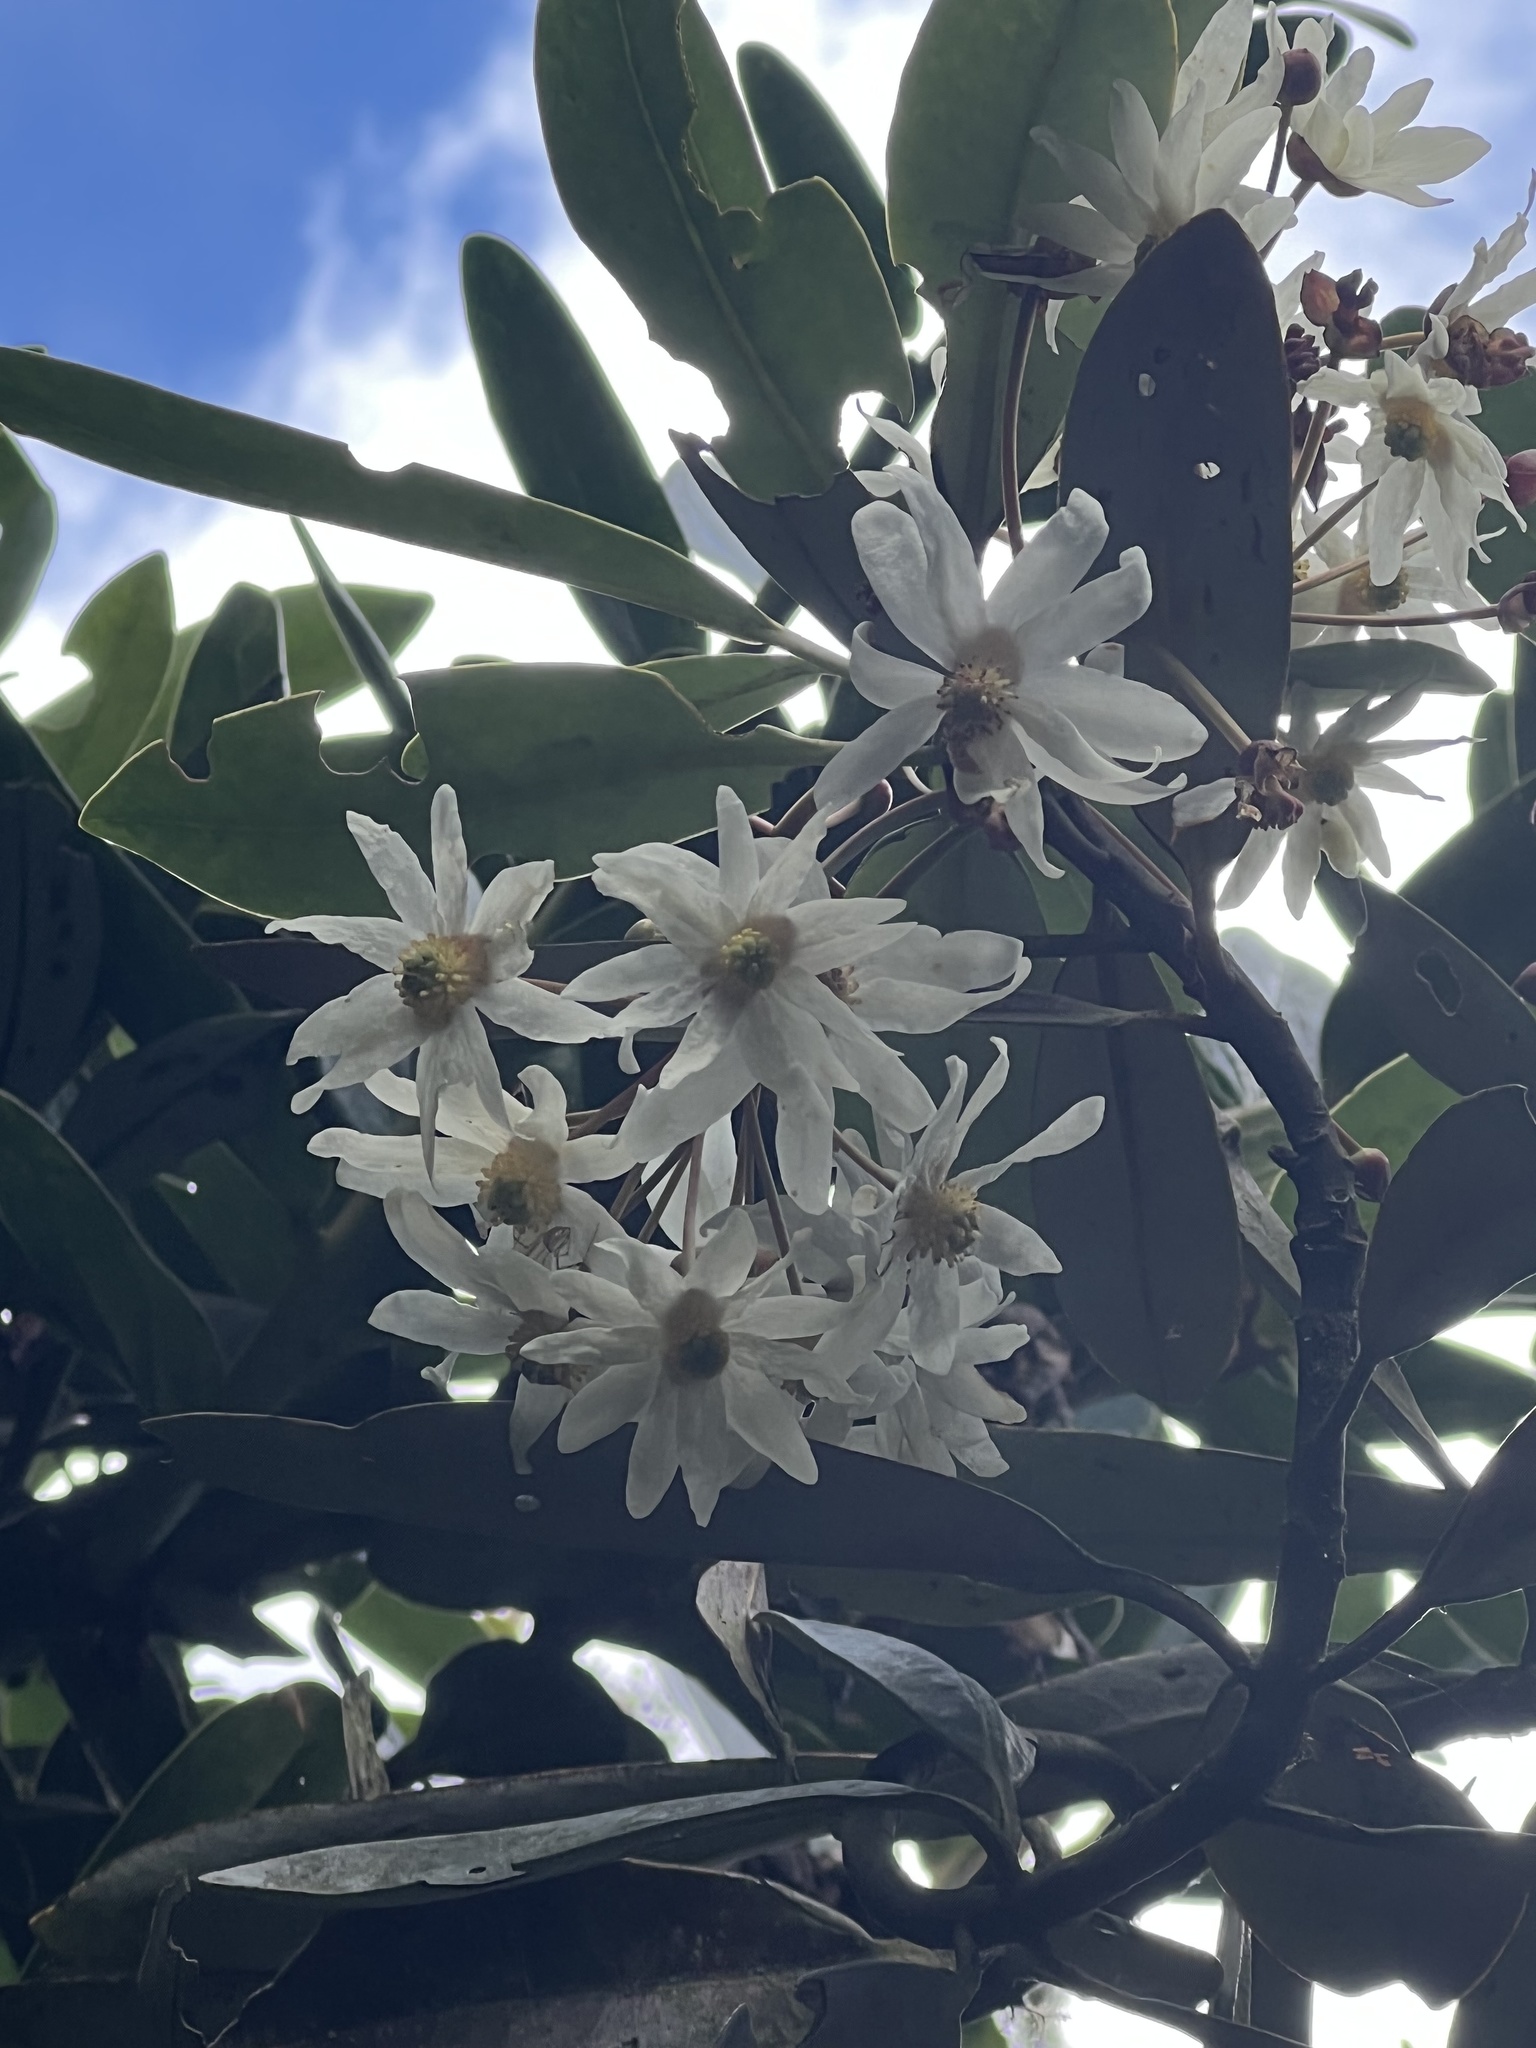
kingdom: Plantae
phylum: Tracheophyta
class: Magnoliopsida
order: Canellales
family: Winteraceae
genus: Drimys
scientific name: Drimys granadensis
